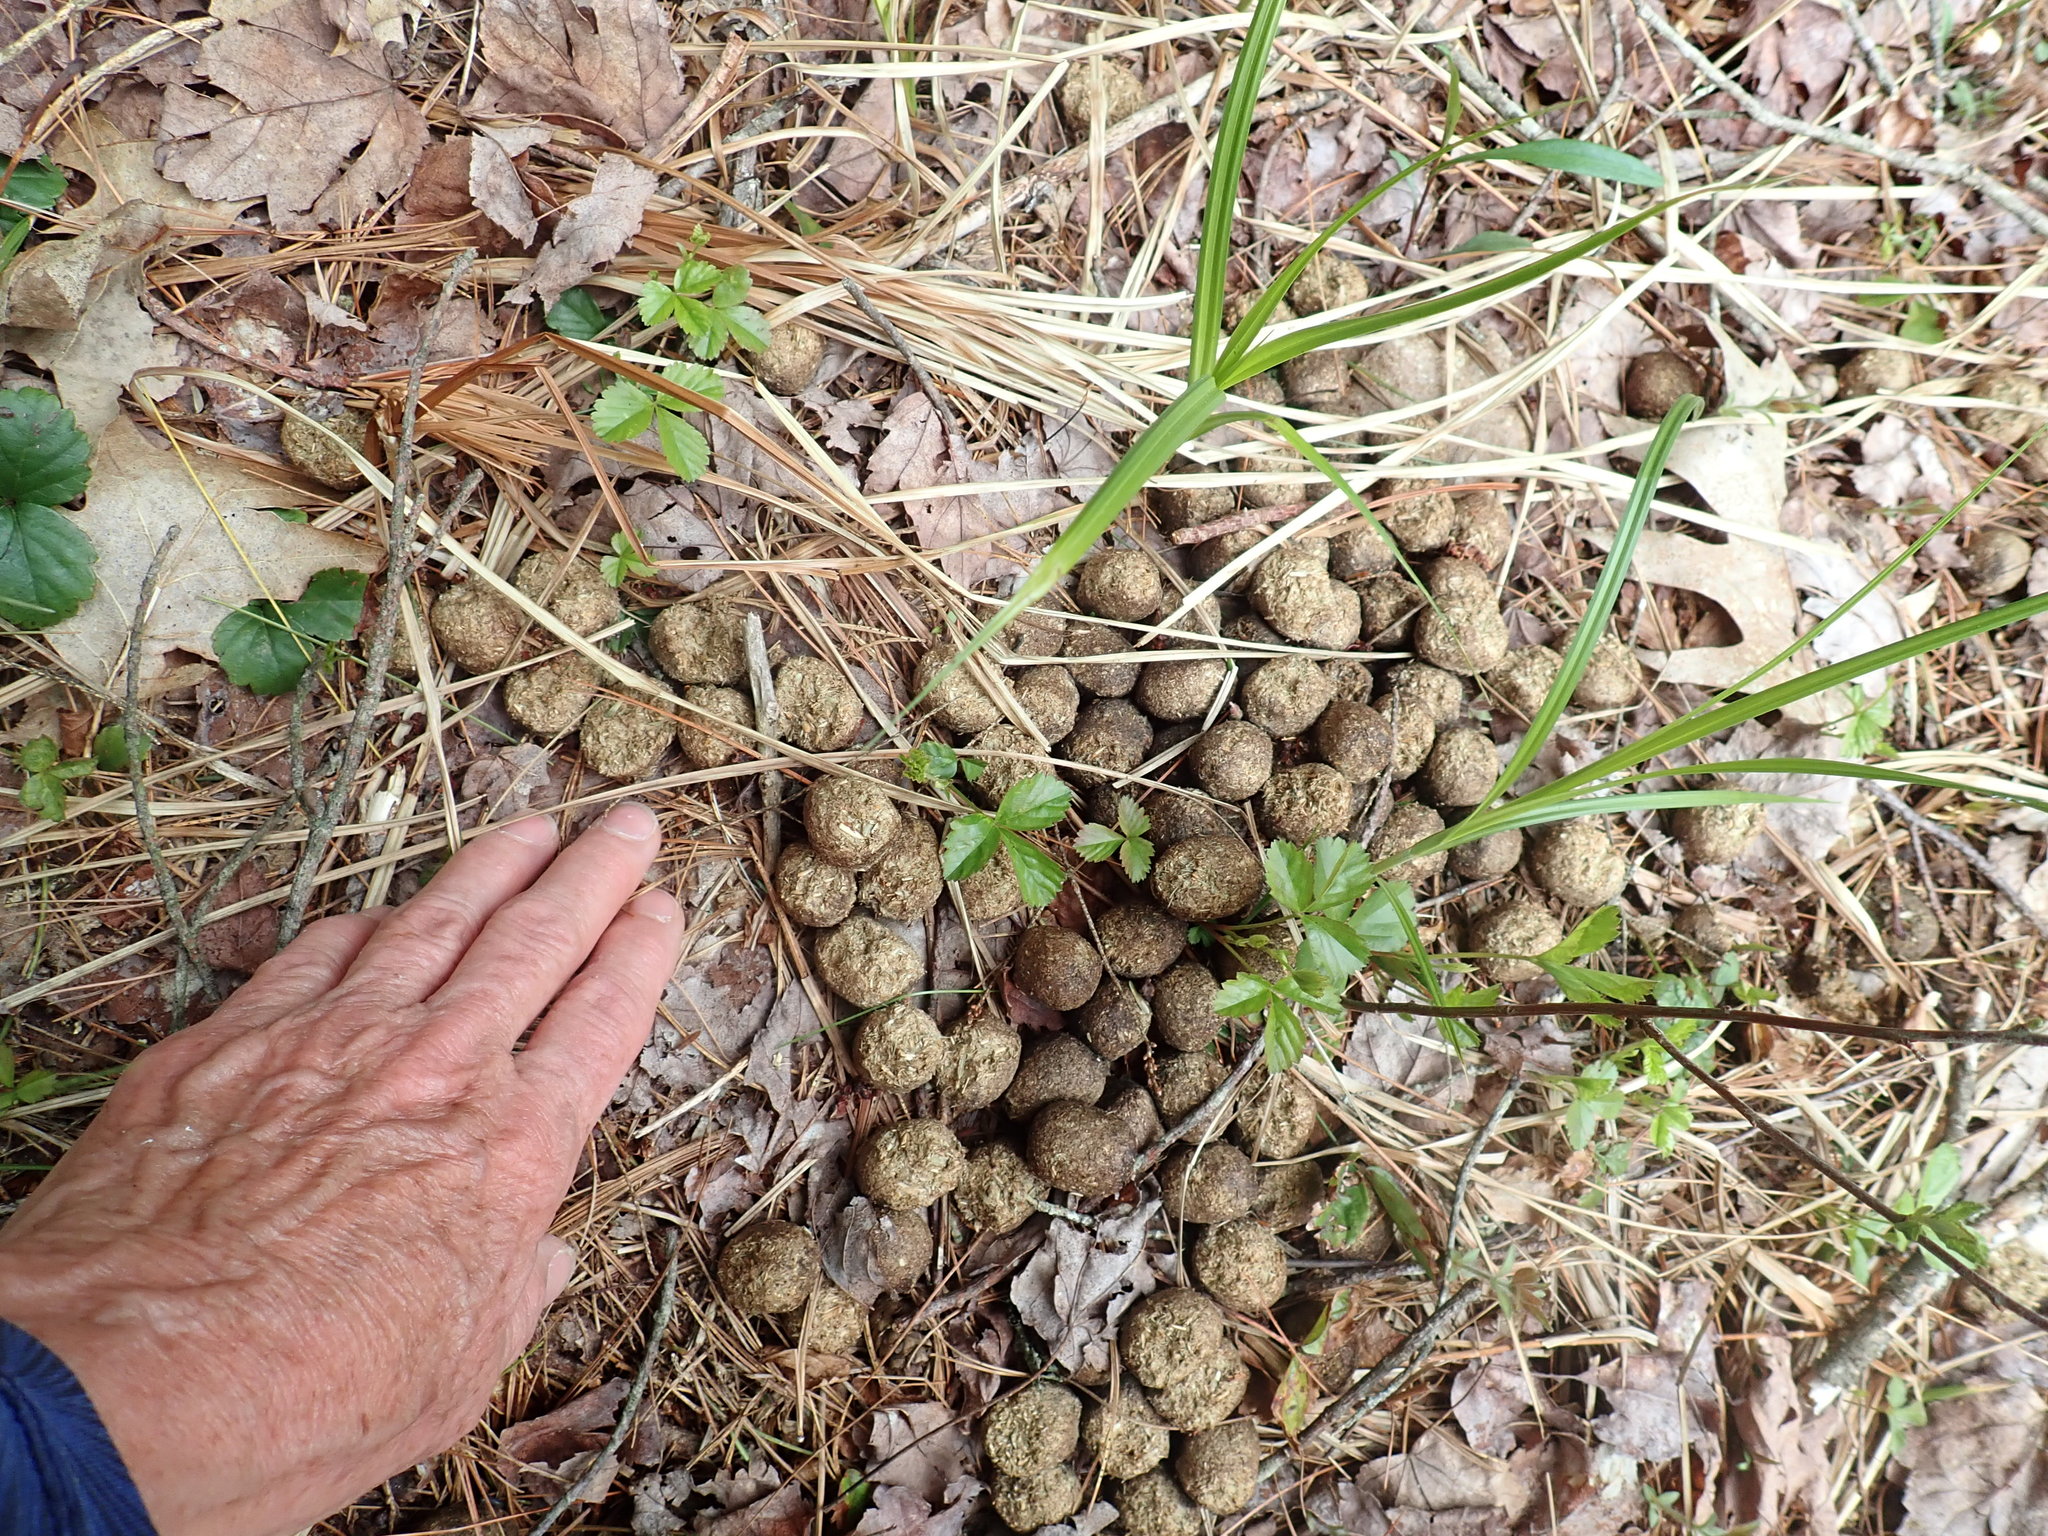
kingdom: Animalia
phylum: Chordata
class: Mammalia
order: Artiodactyla
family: Cervidae
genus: Alces
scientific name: Alces alces
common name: Moose
